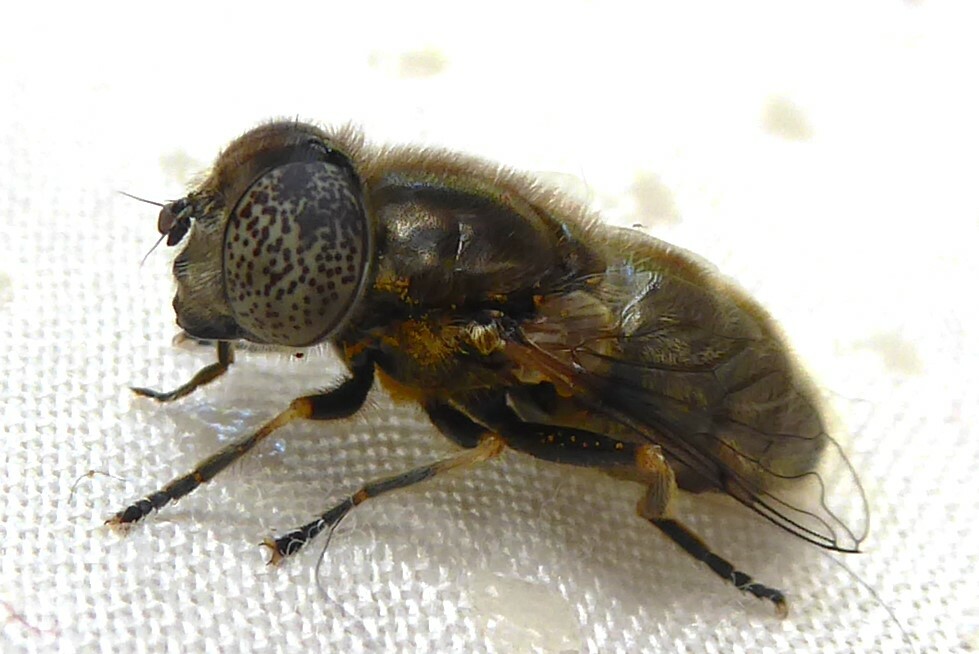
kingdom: Animalia
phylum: Arthropoda
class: Insecta
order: Diptera
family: Syrphidae
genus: Eristalinus
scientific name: Eristalinus aeneus
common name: Syrphid fly
